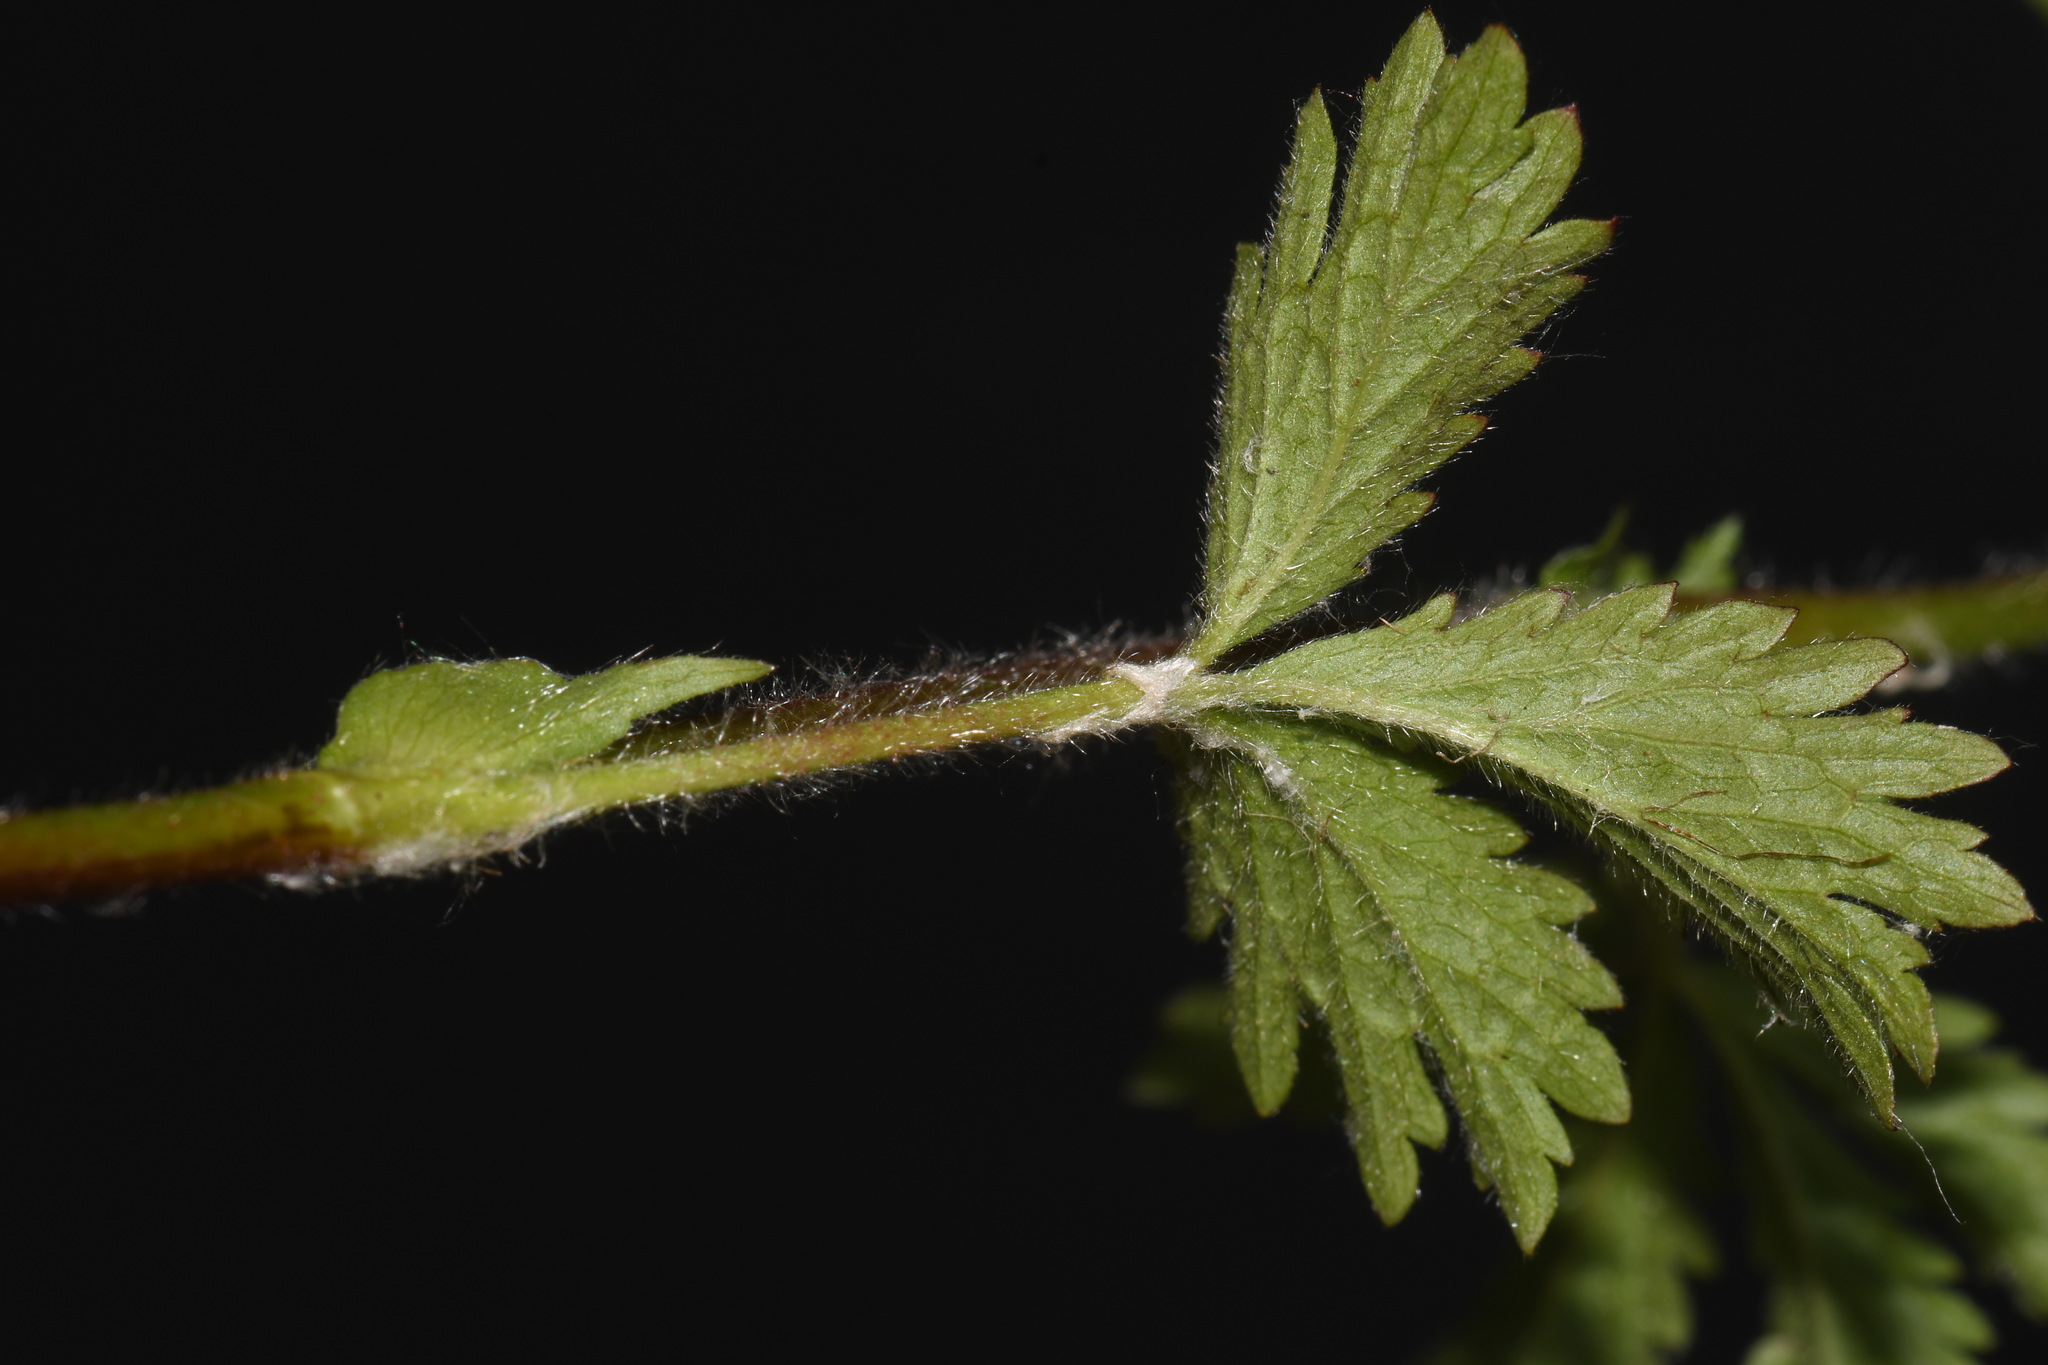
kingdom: Plantae
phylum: Tracheophyta
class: Magnoliopsida
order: Rosales
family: Rosaceae
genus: Potentilla
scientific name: Potentilla norvegica
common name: Ternate-leaved cinquefoil
